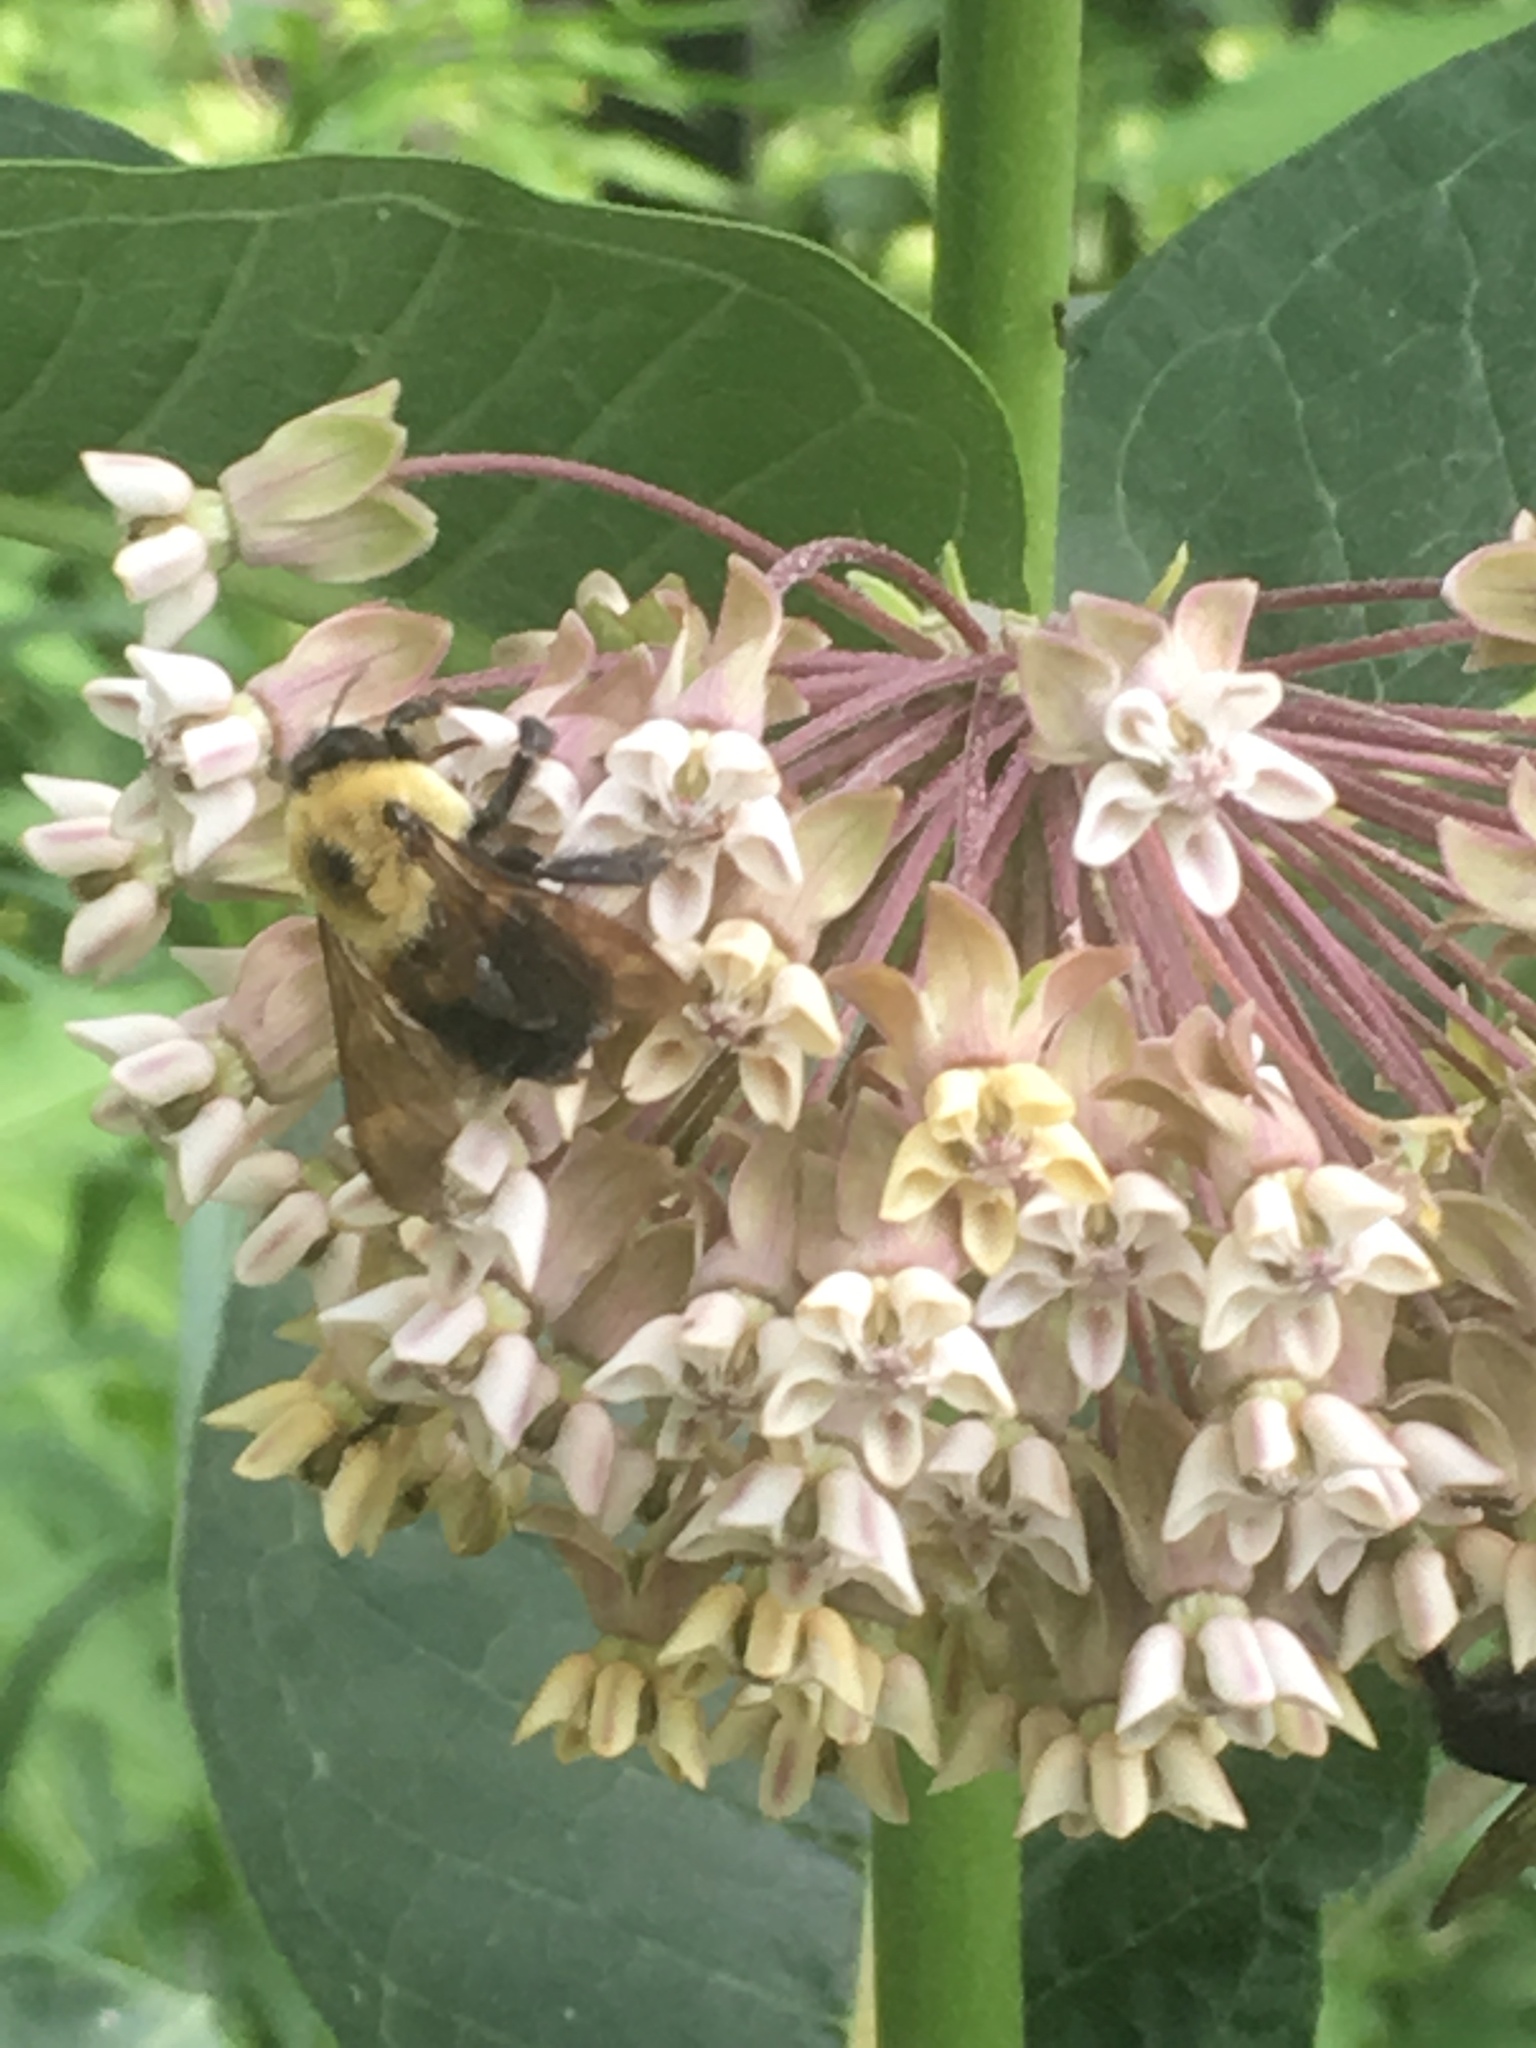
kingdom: Animalia
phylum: Arthropoda
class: Insecta
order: Hymenoptera
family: Apidae
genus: Bombus
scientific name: Bombus griseocollis
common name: Brown-belted bumble bee
